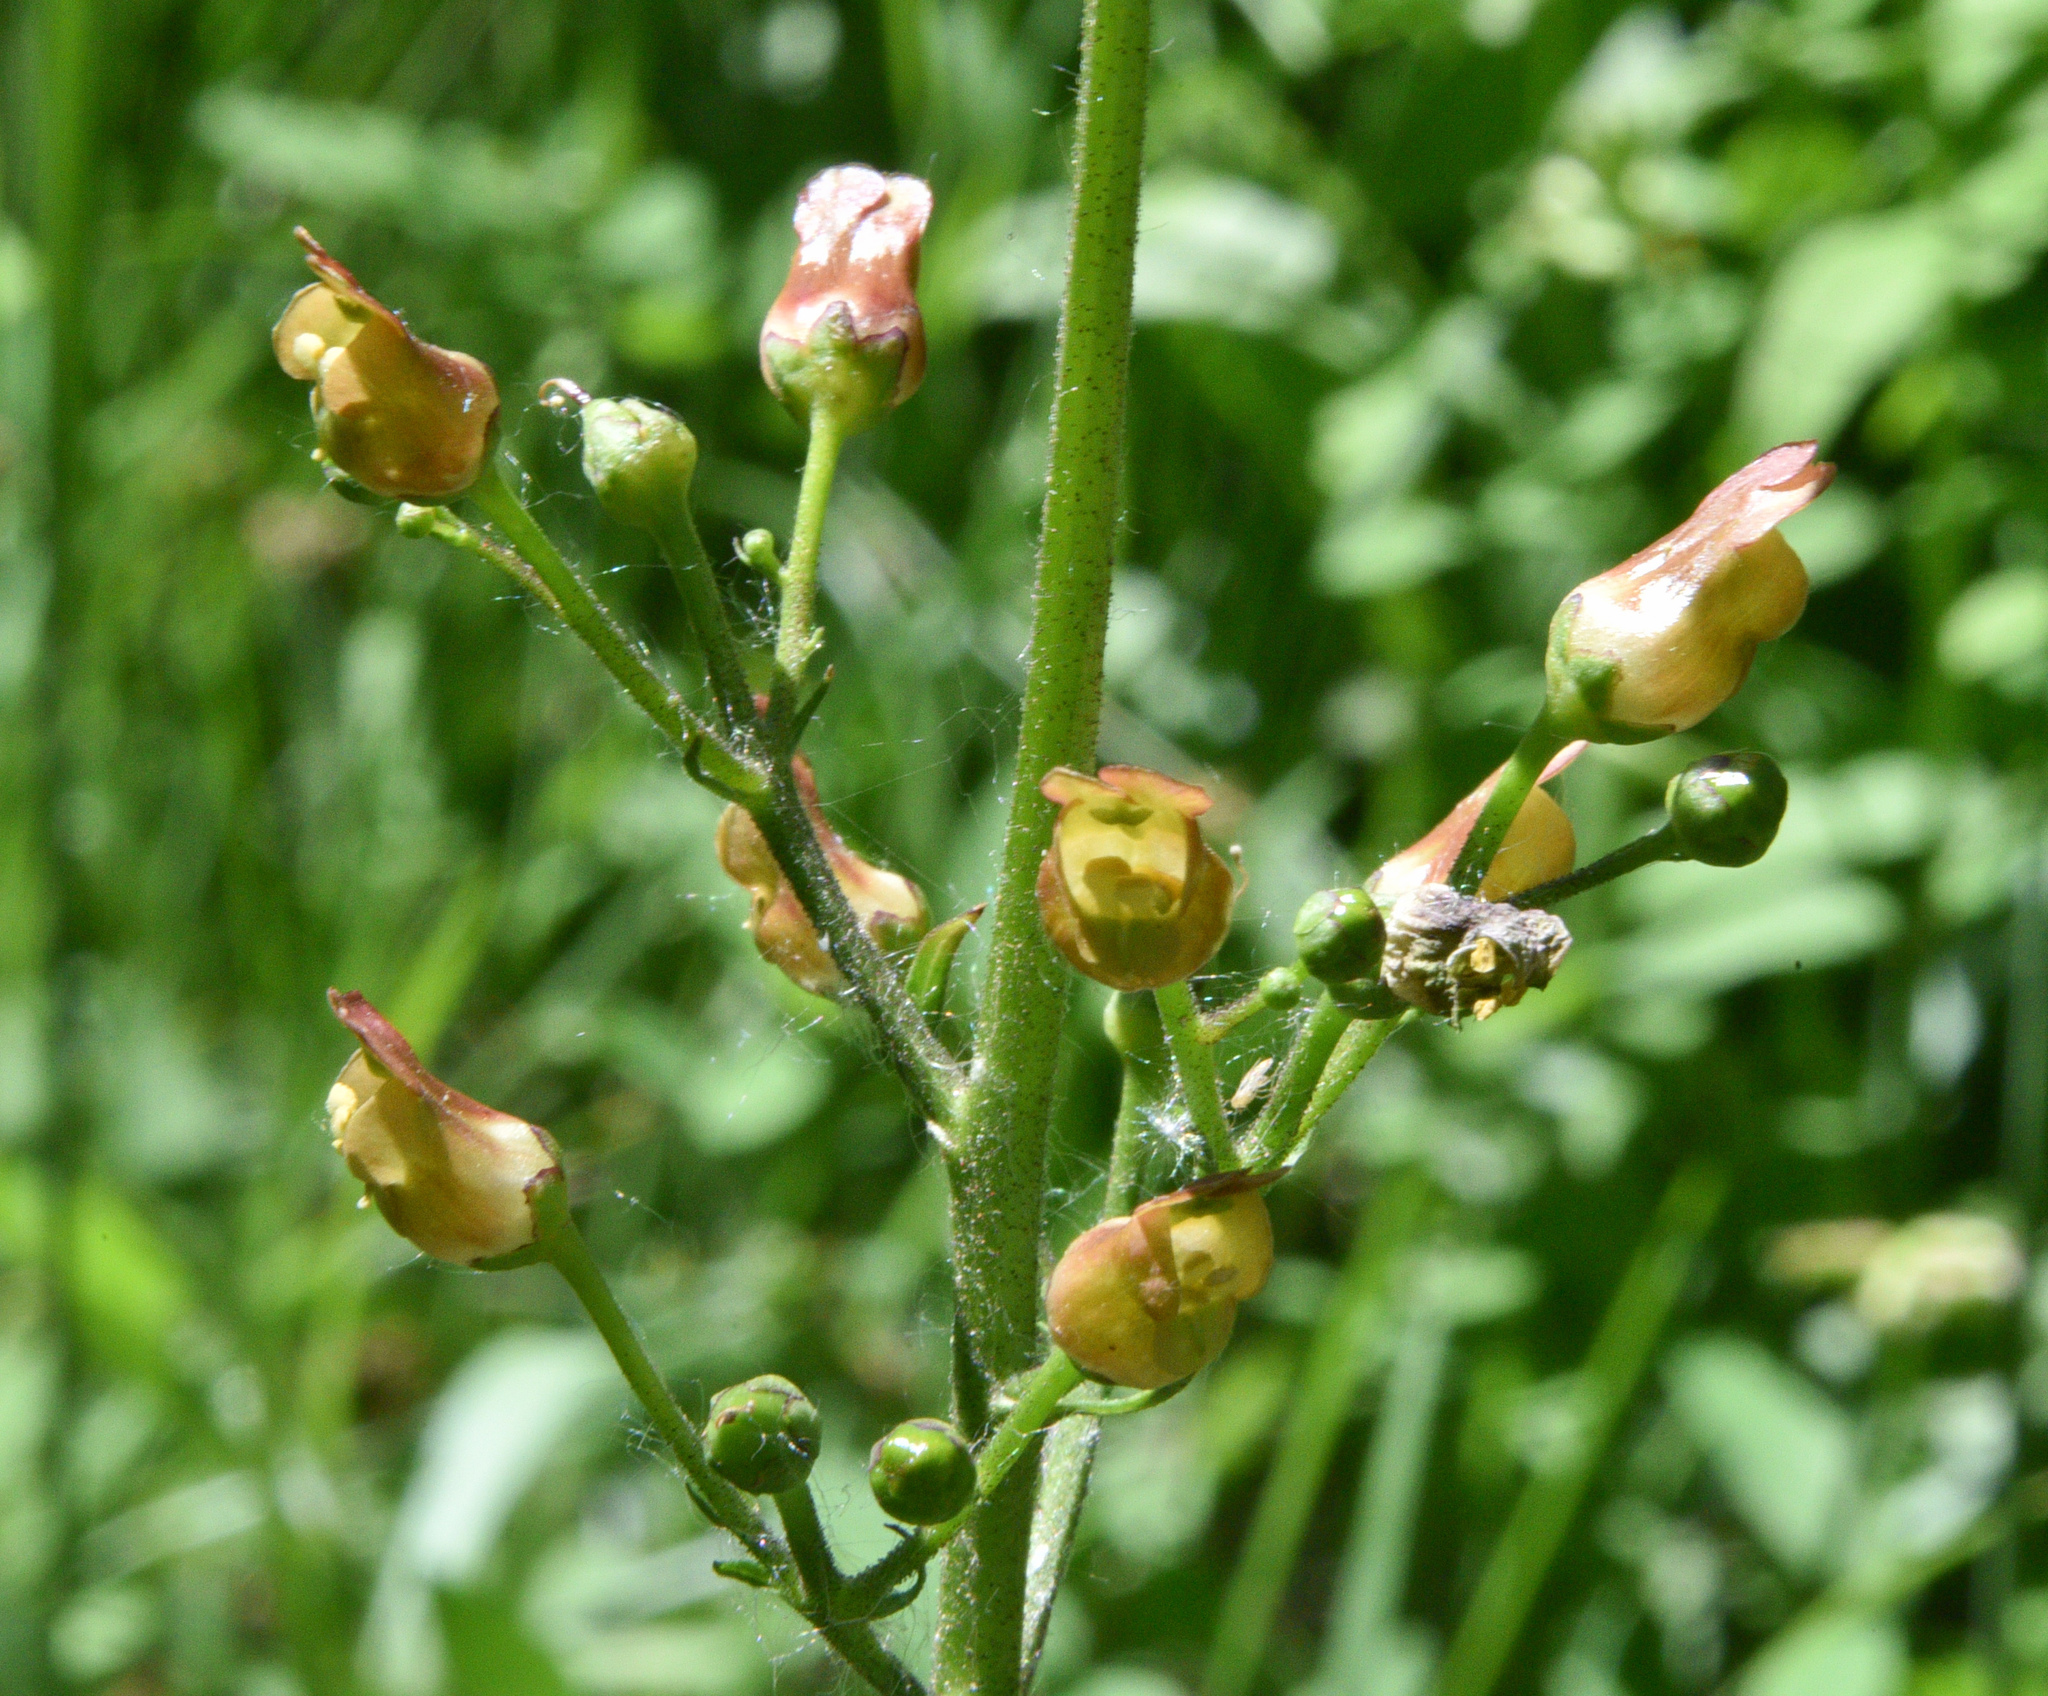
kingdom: Plantae
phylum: Tracheophyta
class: Magnoliopsida
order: Lamiales
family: Scrophulariaceae
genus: Scrophularia
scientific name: Scrophularia lanceolata
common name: American figwort
